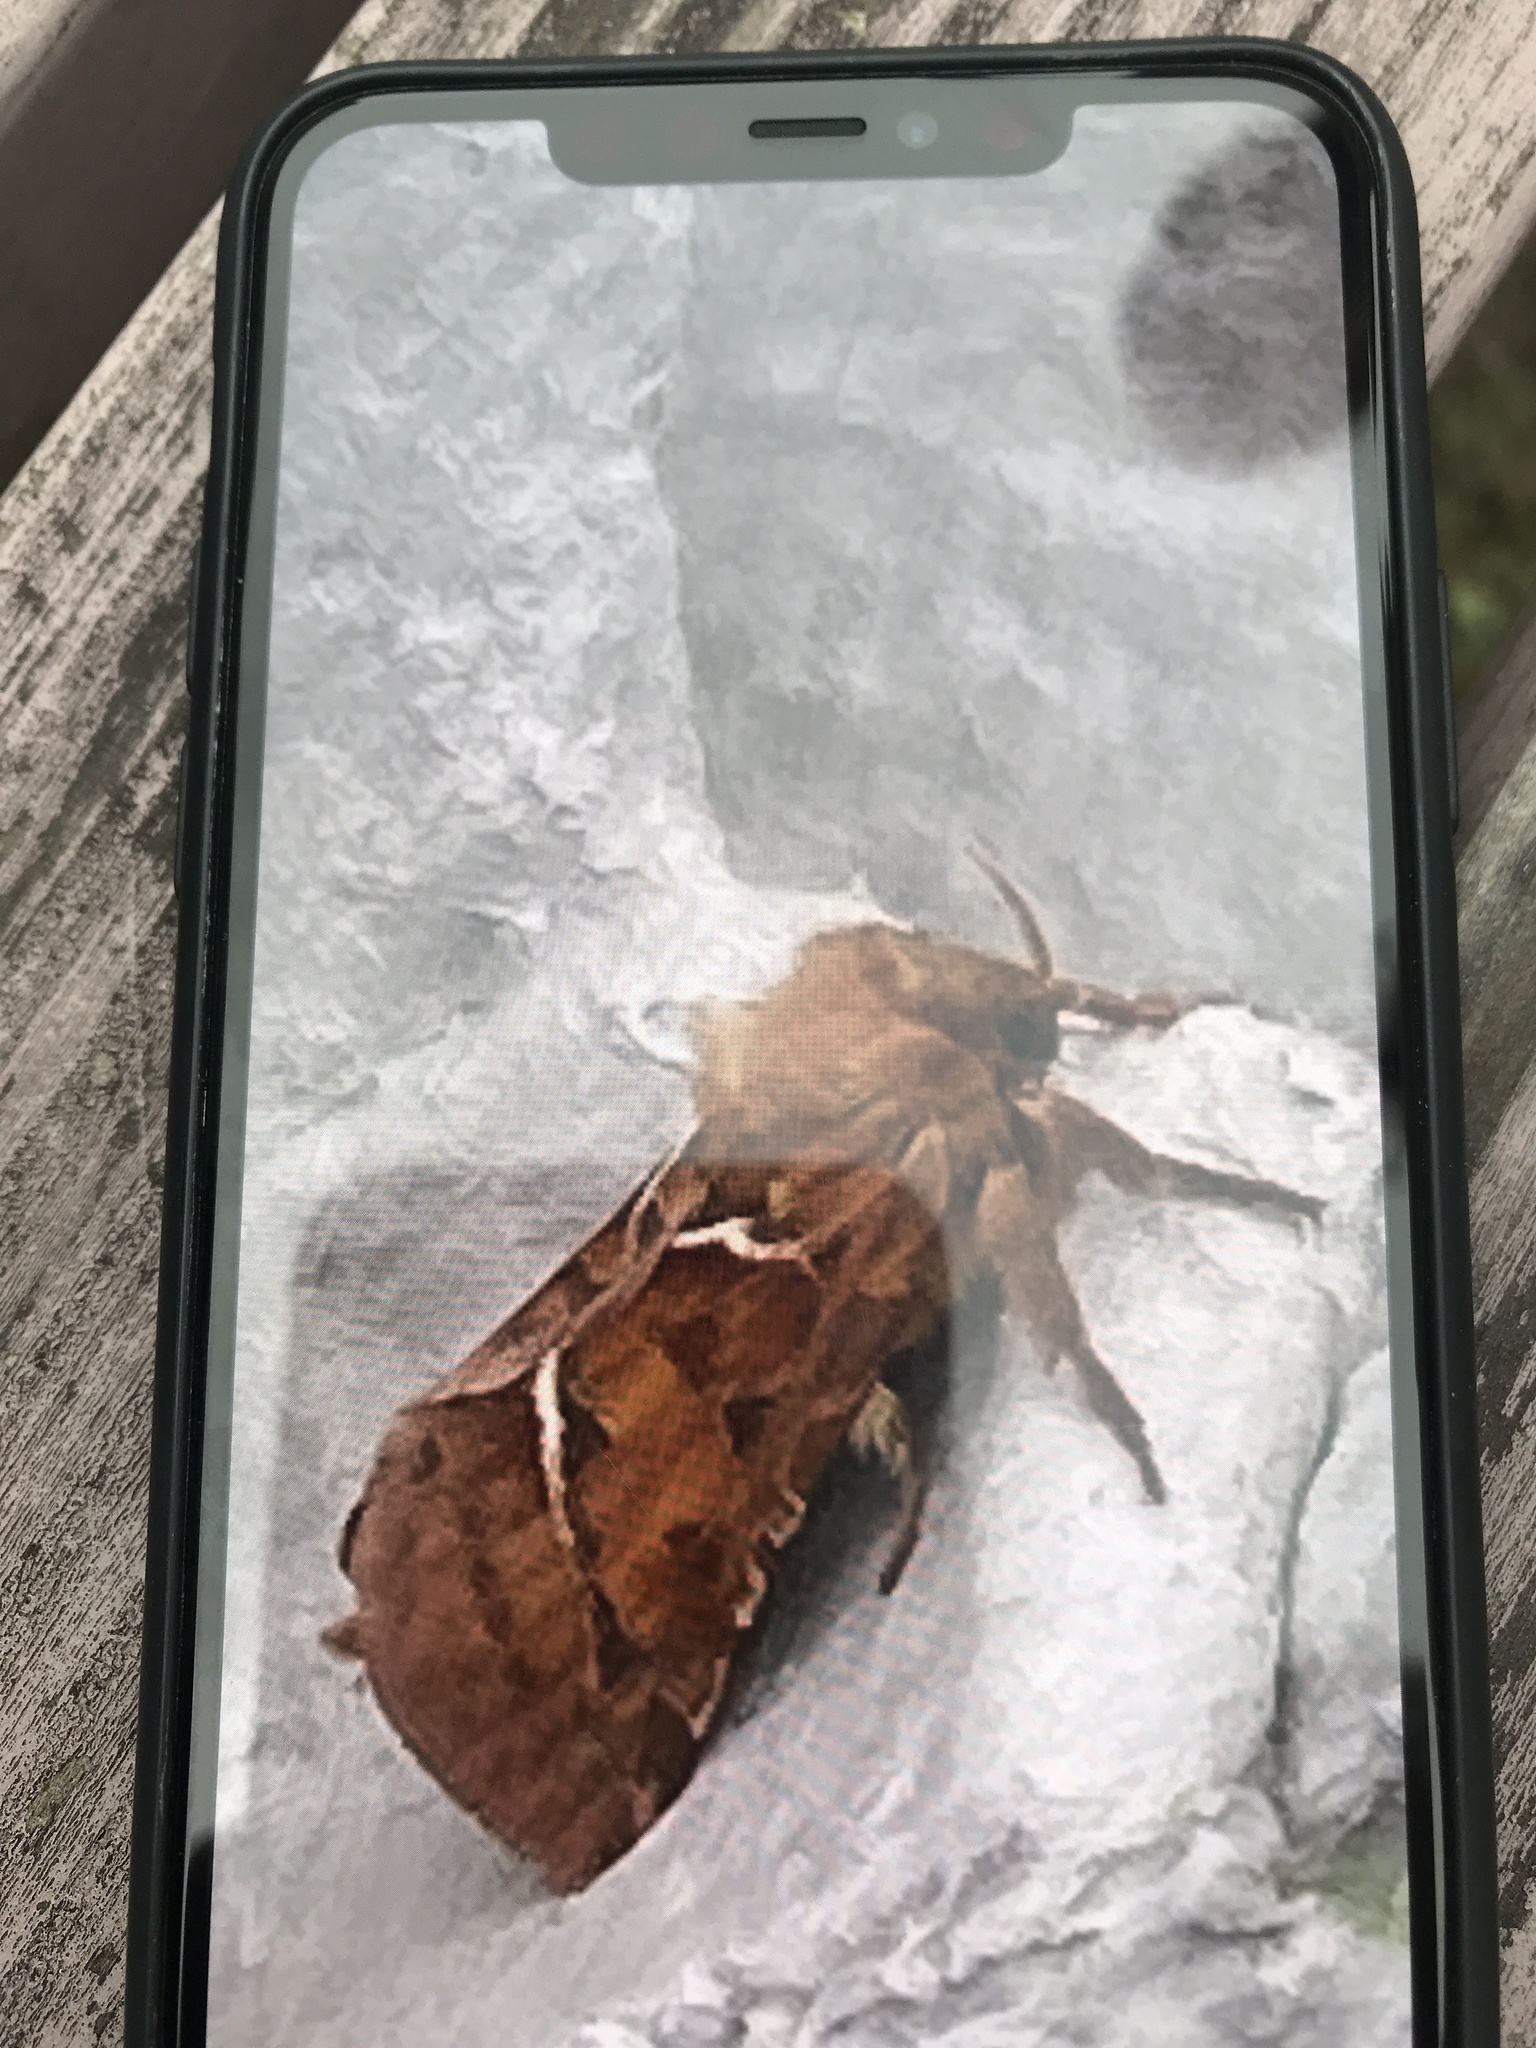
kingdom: Animalia
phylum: Arthropoda
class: Insecta
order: Lepidoptera
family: Hepialidae
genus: Triodia
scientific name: Triodia sylvina
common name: Orange swift
